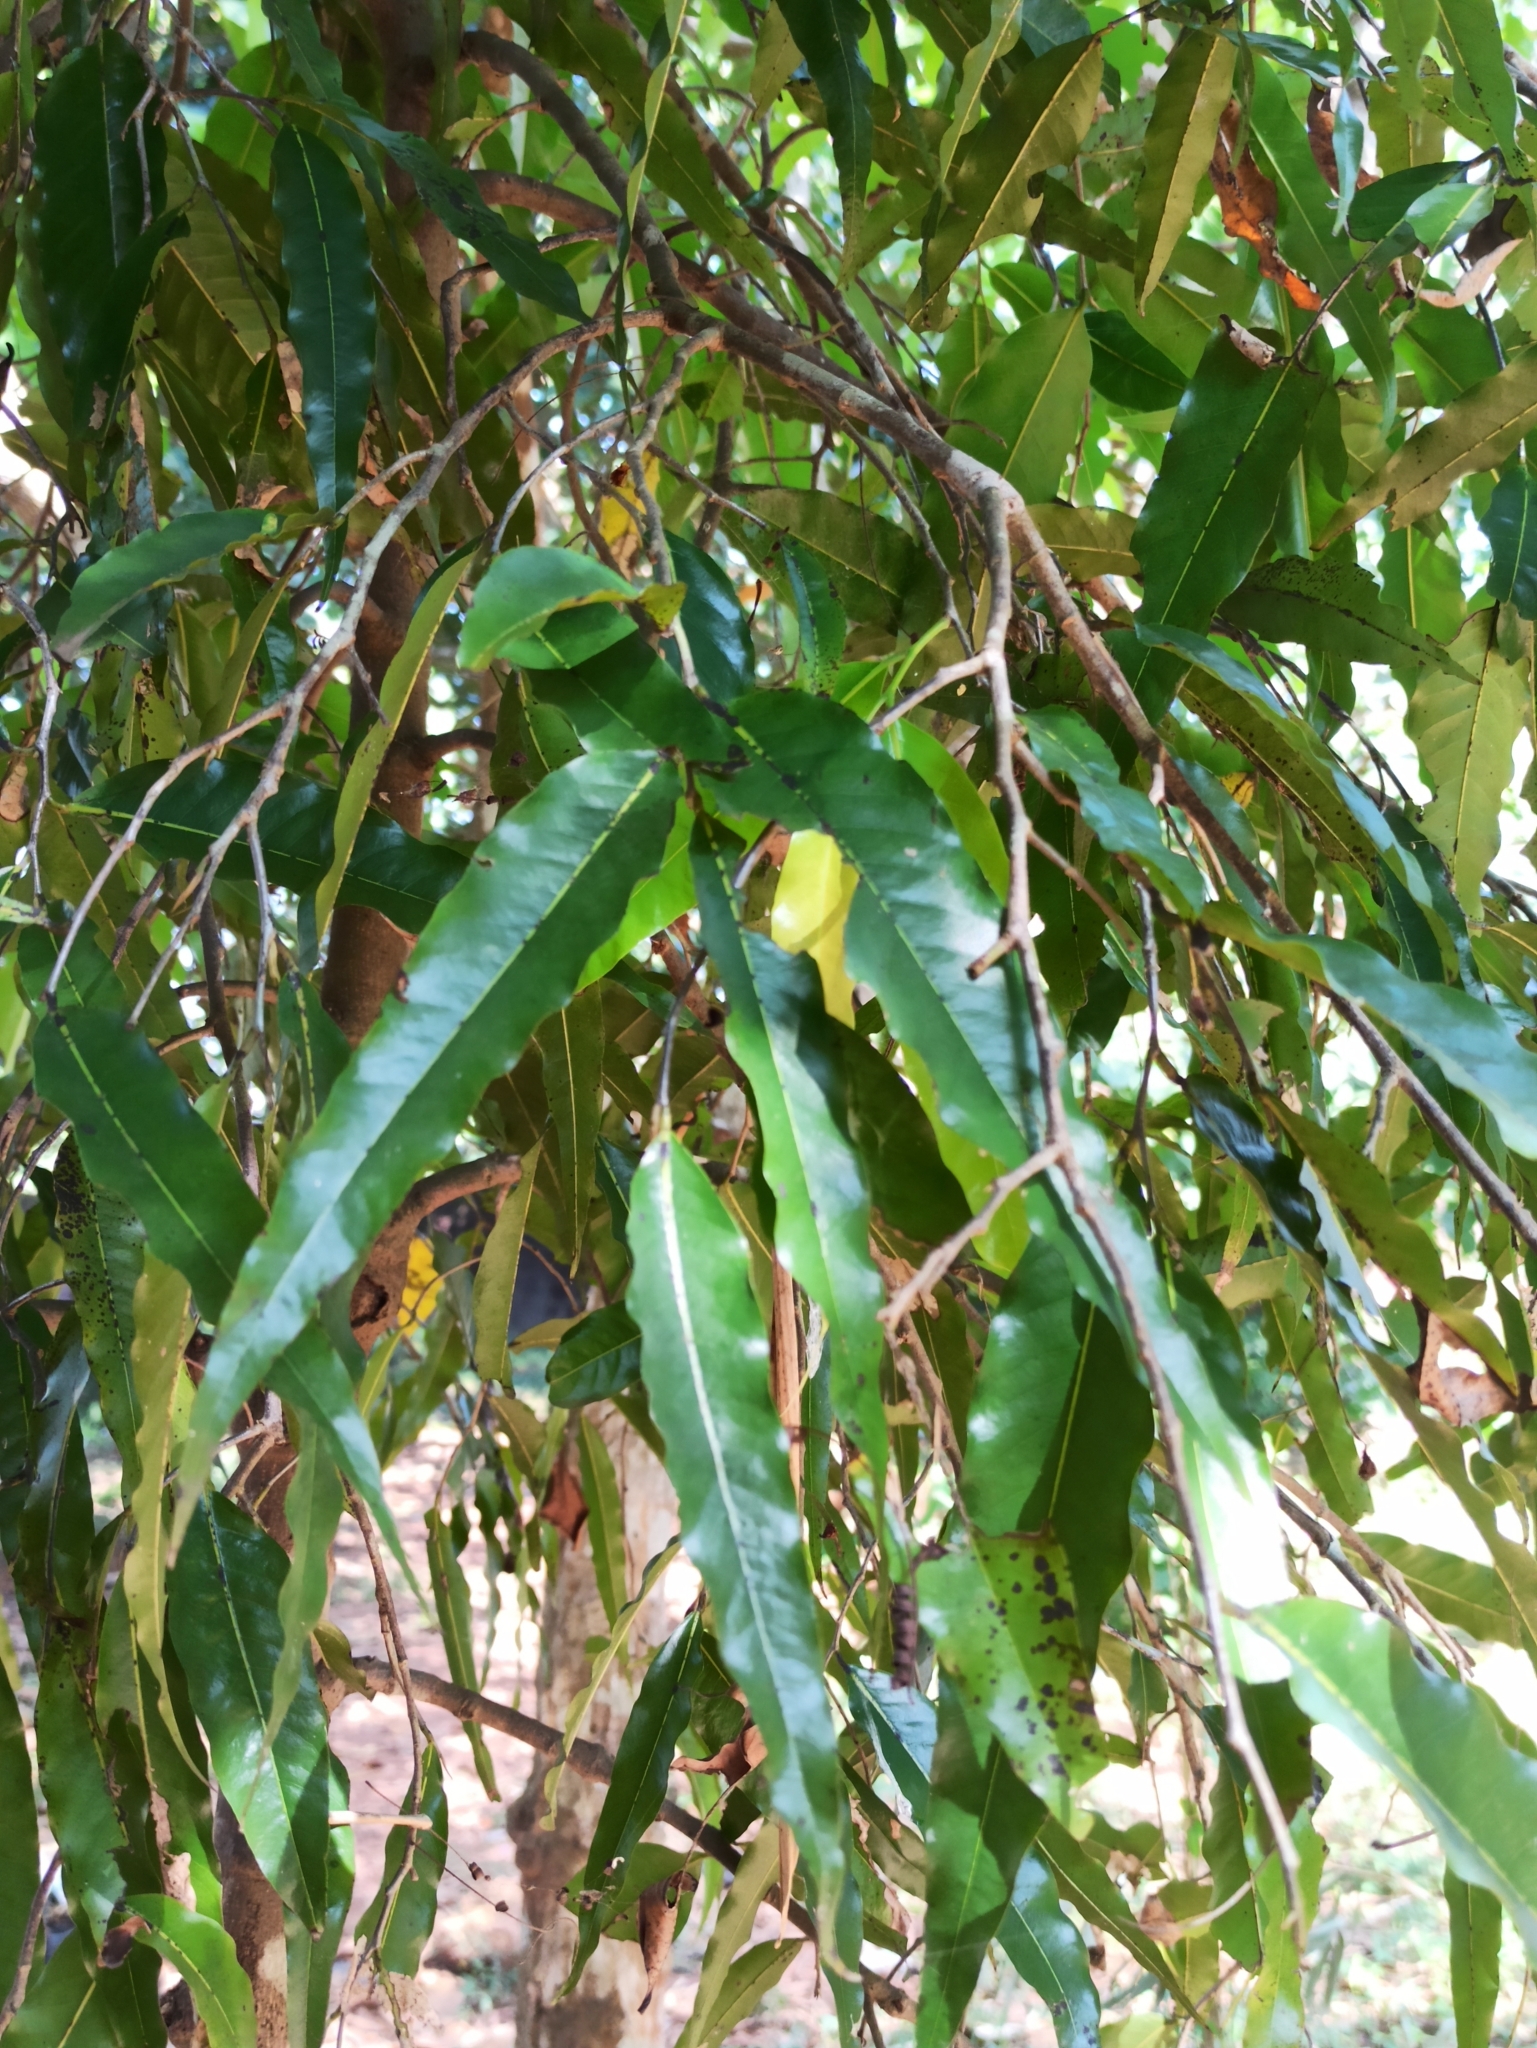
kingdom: Plantae
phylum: Tracheophyta
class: Magnoliopsida
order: Magnoliales
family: Annonaceae
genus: Polyalthia
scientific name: Polyalthia longifolia
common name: Cemetery-tree
